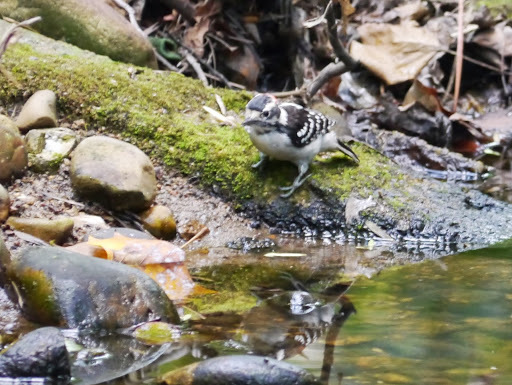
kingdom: Animalia
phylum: Chordata
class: Aves
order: Piciformes
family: Picidae
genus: Dryobates
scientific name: Dryobates pubescens
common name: Downy woodpecker
